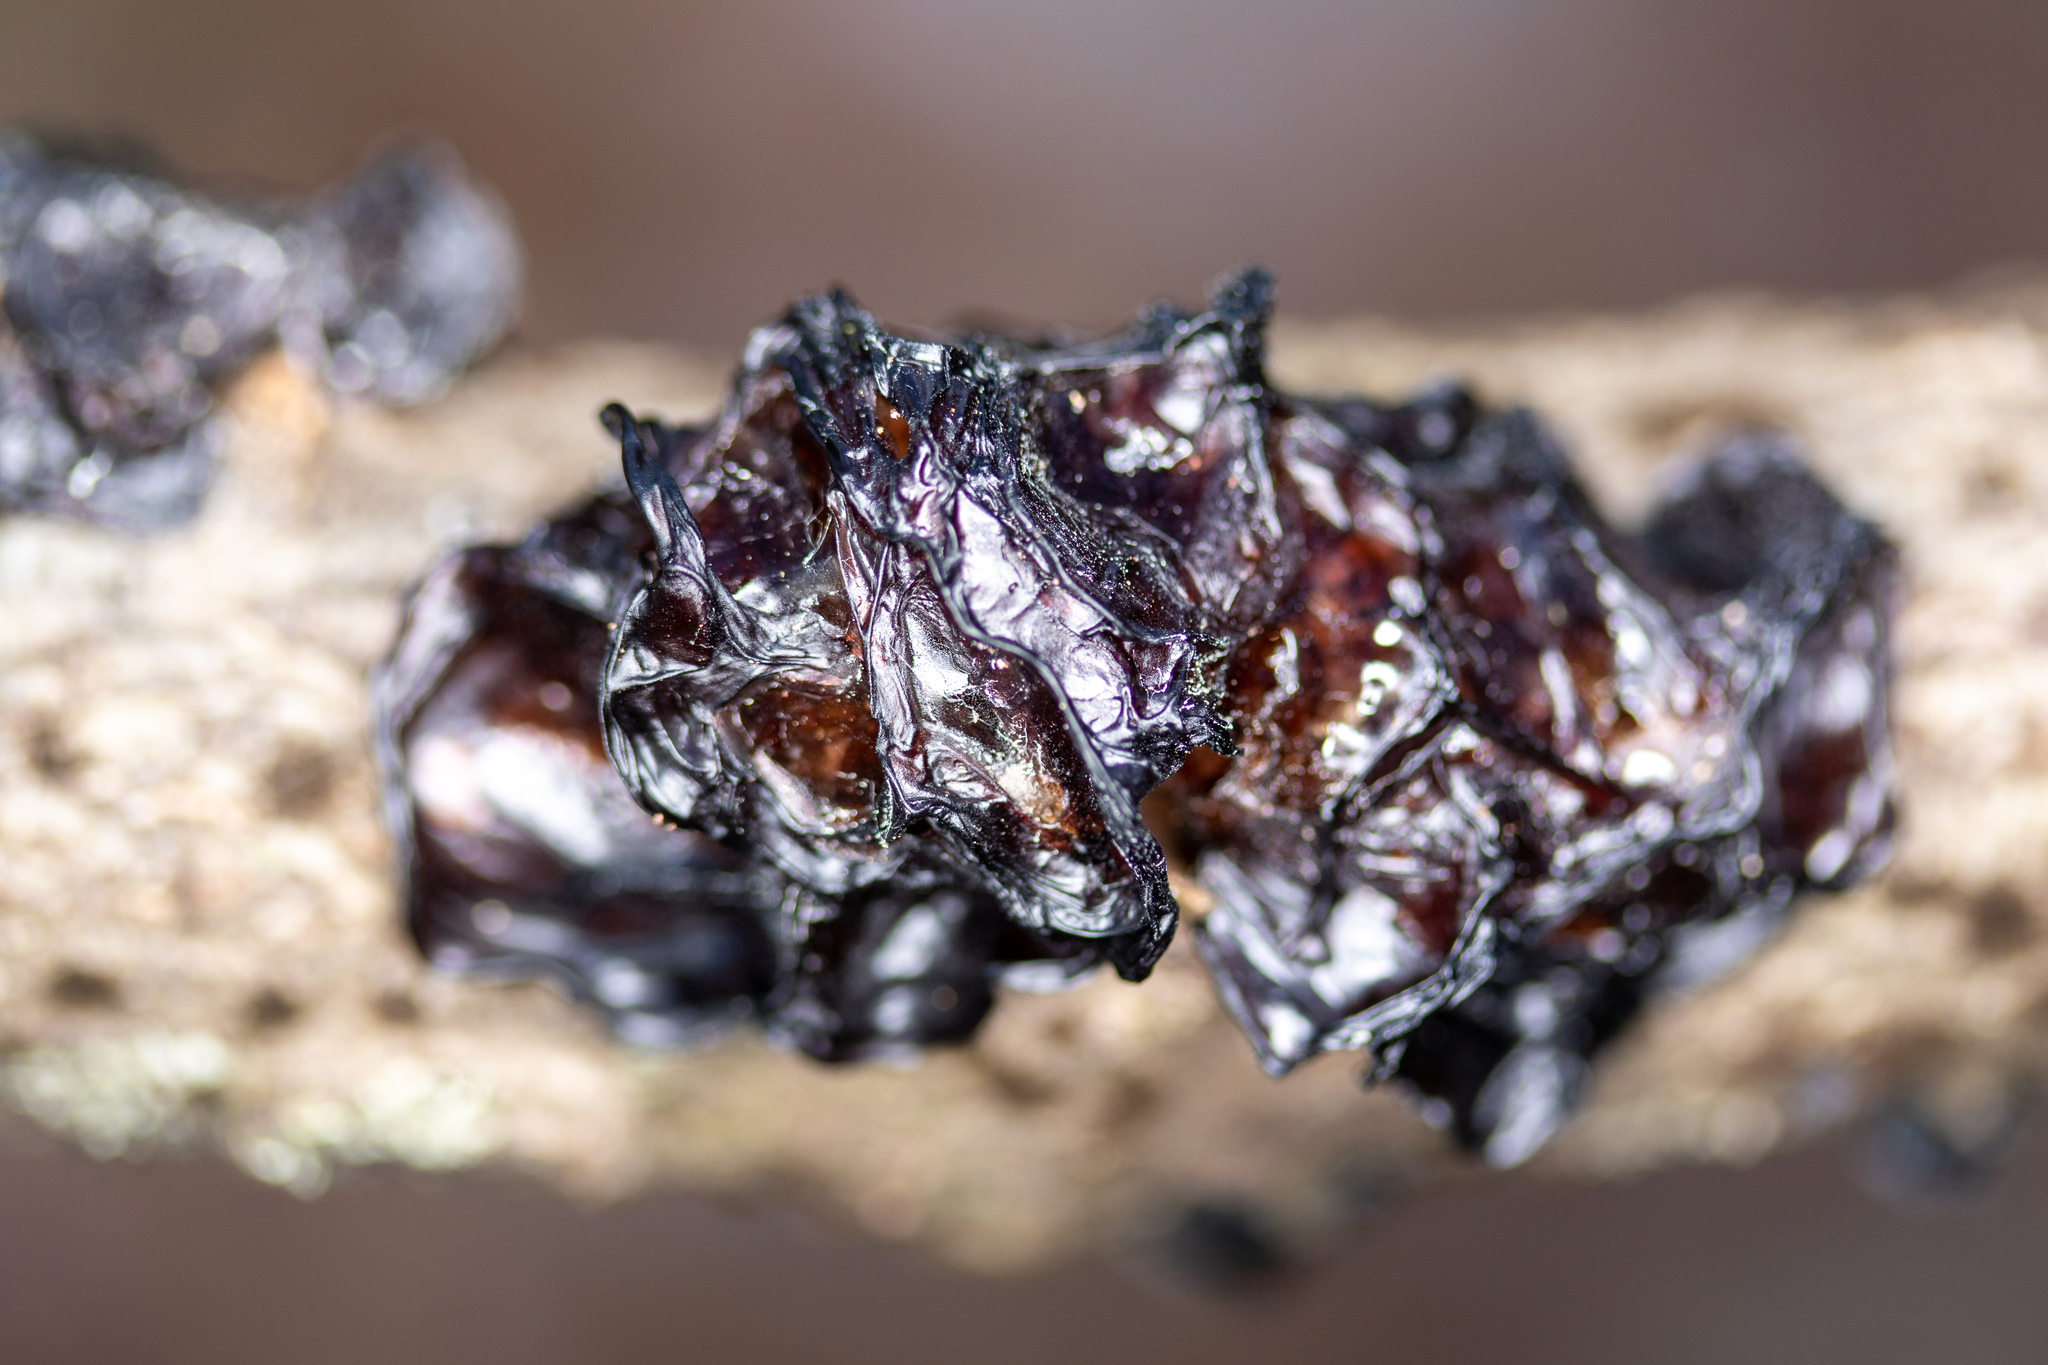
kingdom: Fungi
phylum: Basidiomycota
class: Agaricomycetes
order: Auriculariales
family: Auriculariaceae
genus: Exidia
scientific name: Exidia
